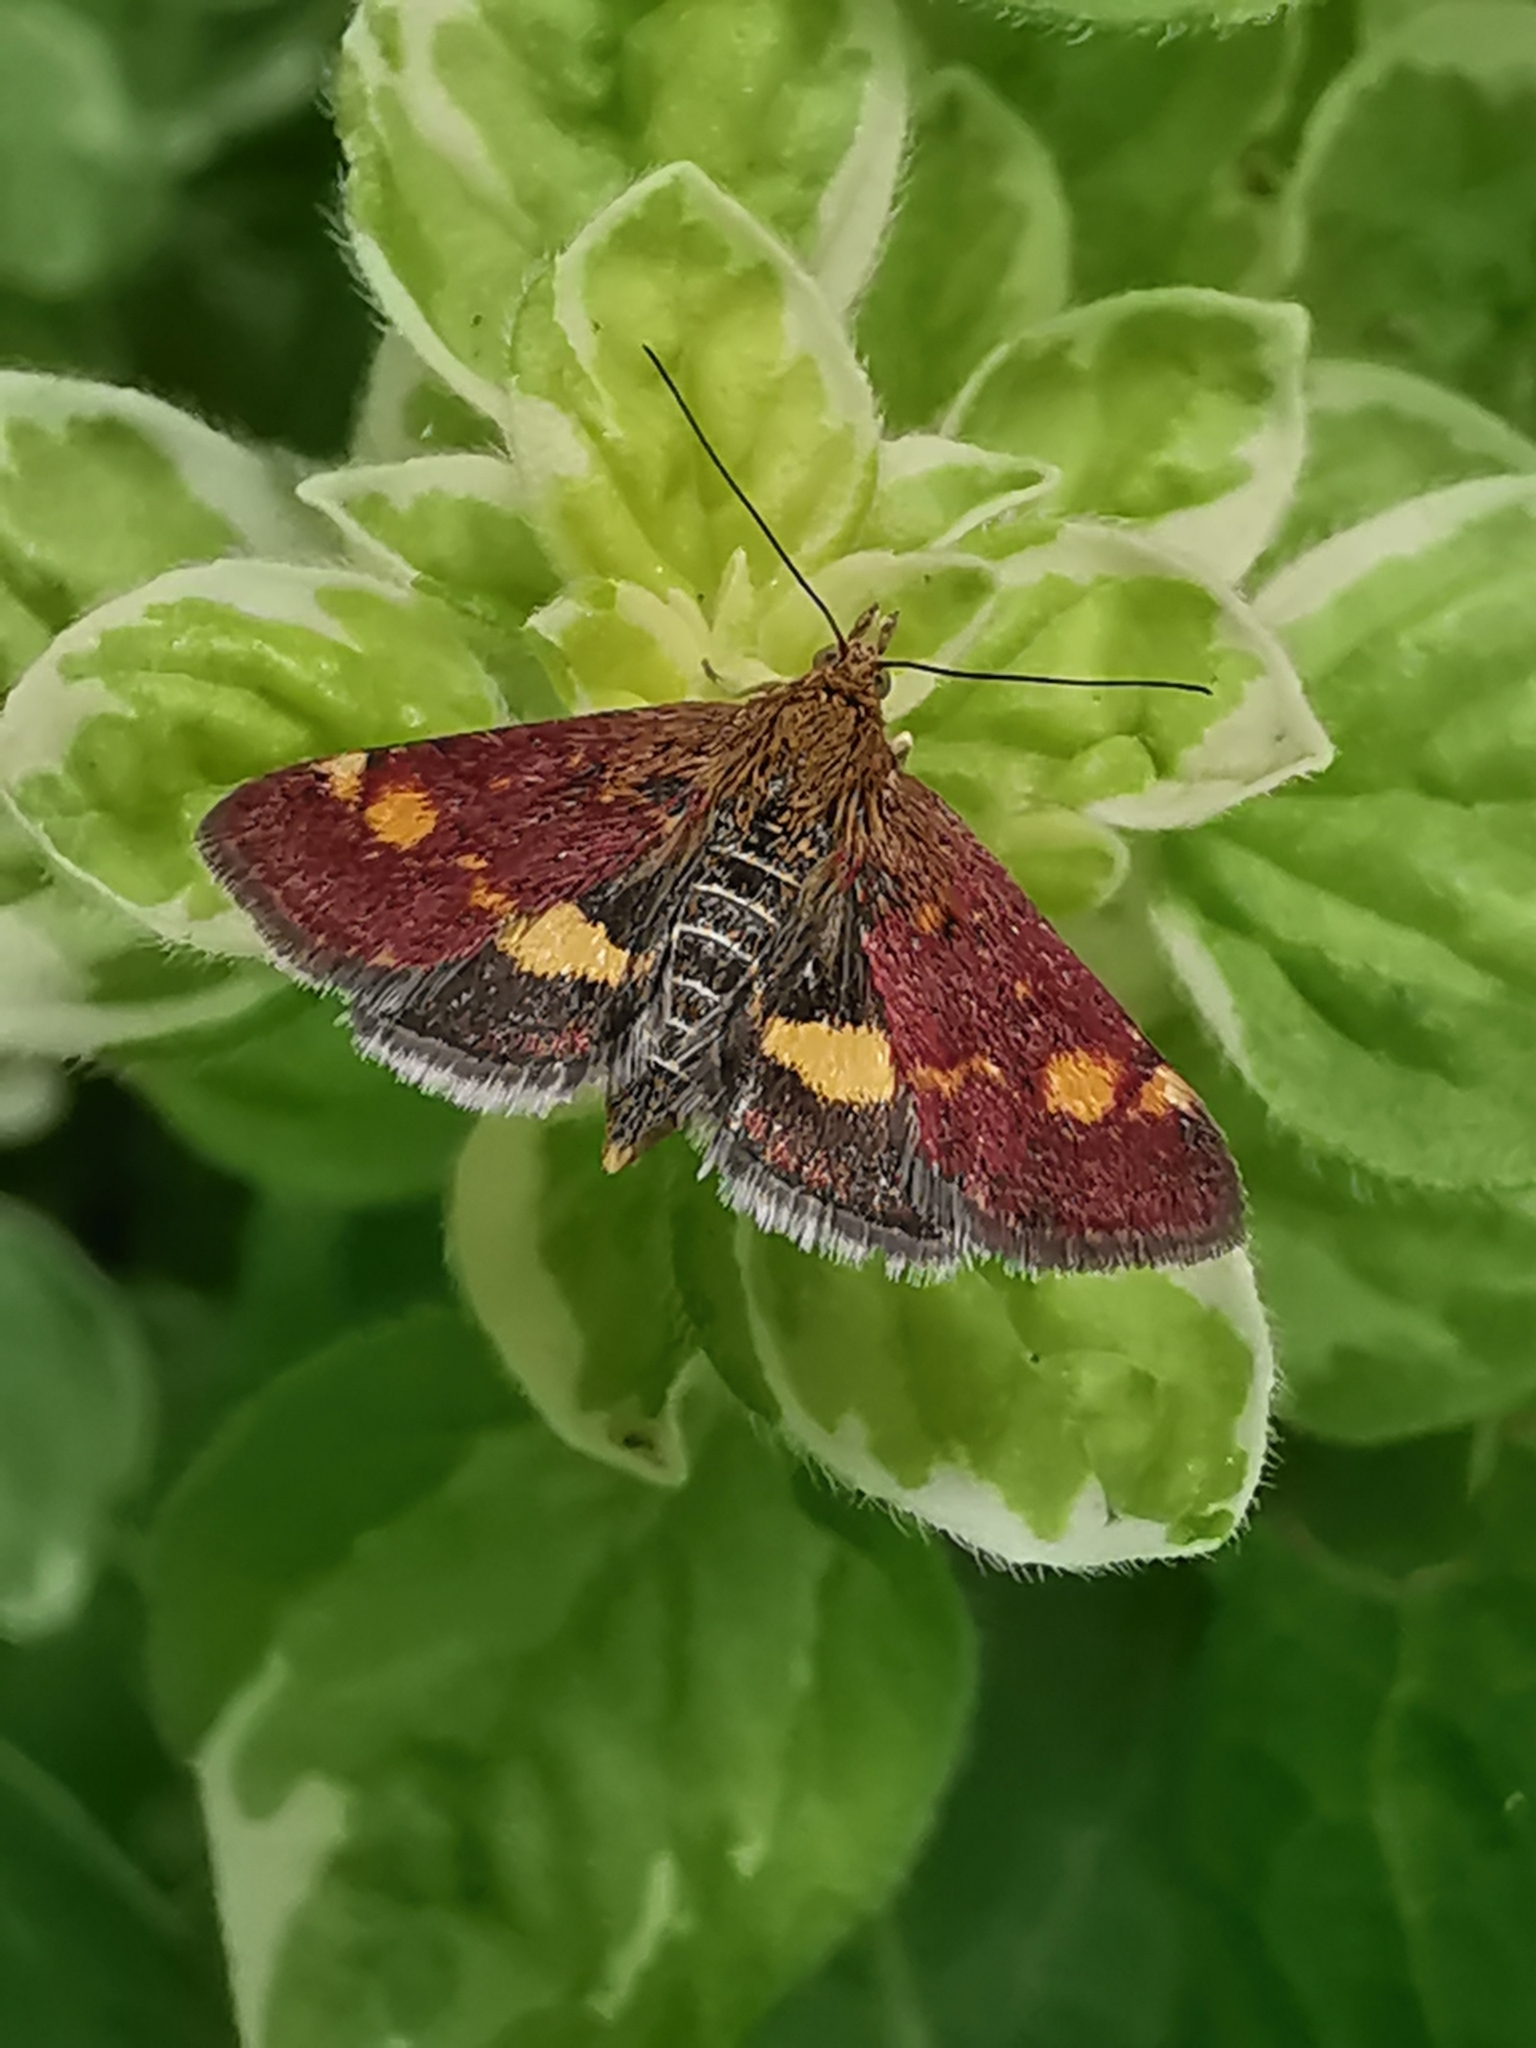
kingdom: Animalia
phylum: Arthropoda
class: Insecta
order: Lepidoptera
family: Crambidae
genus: Pyrausta
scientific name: Pyrausta aurata
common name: Small purple & gold
